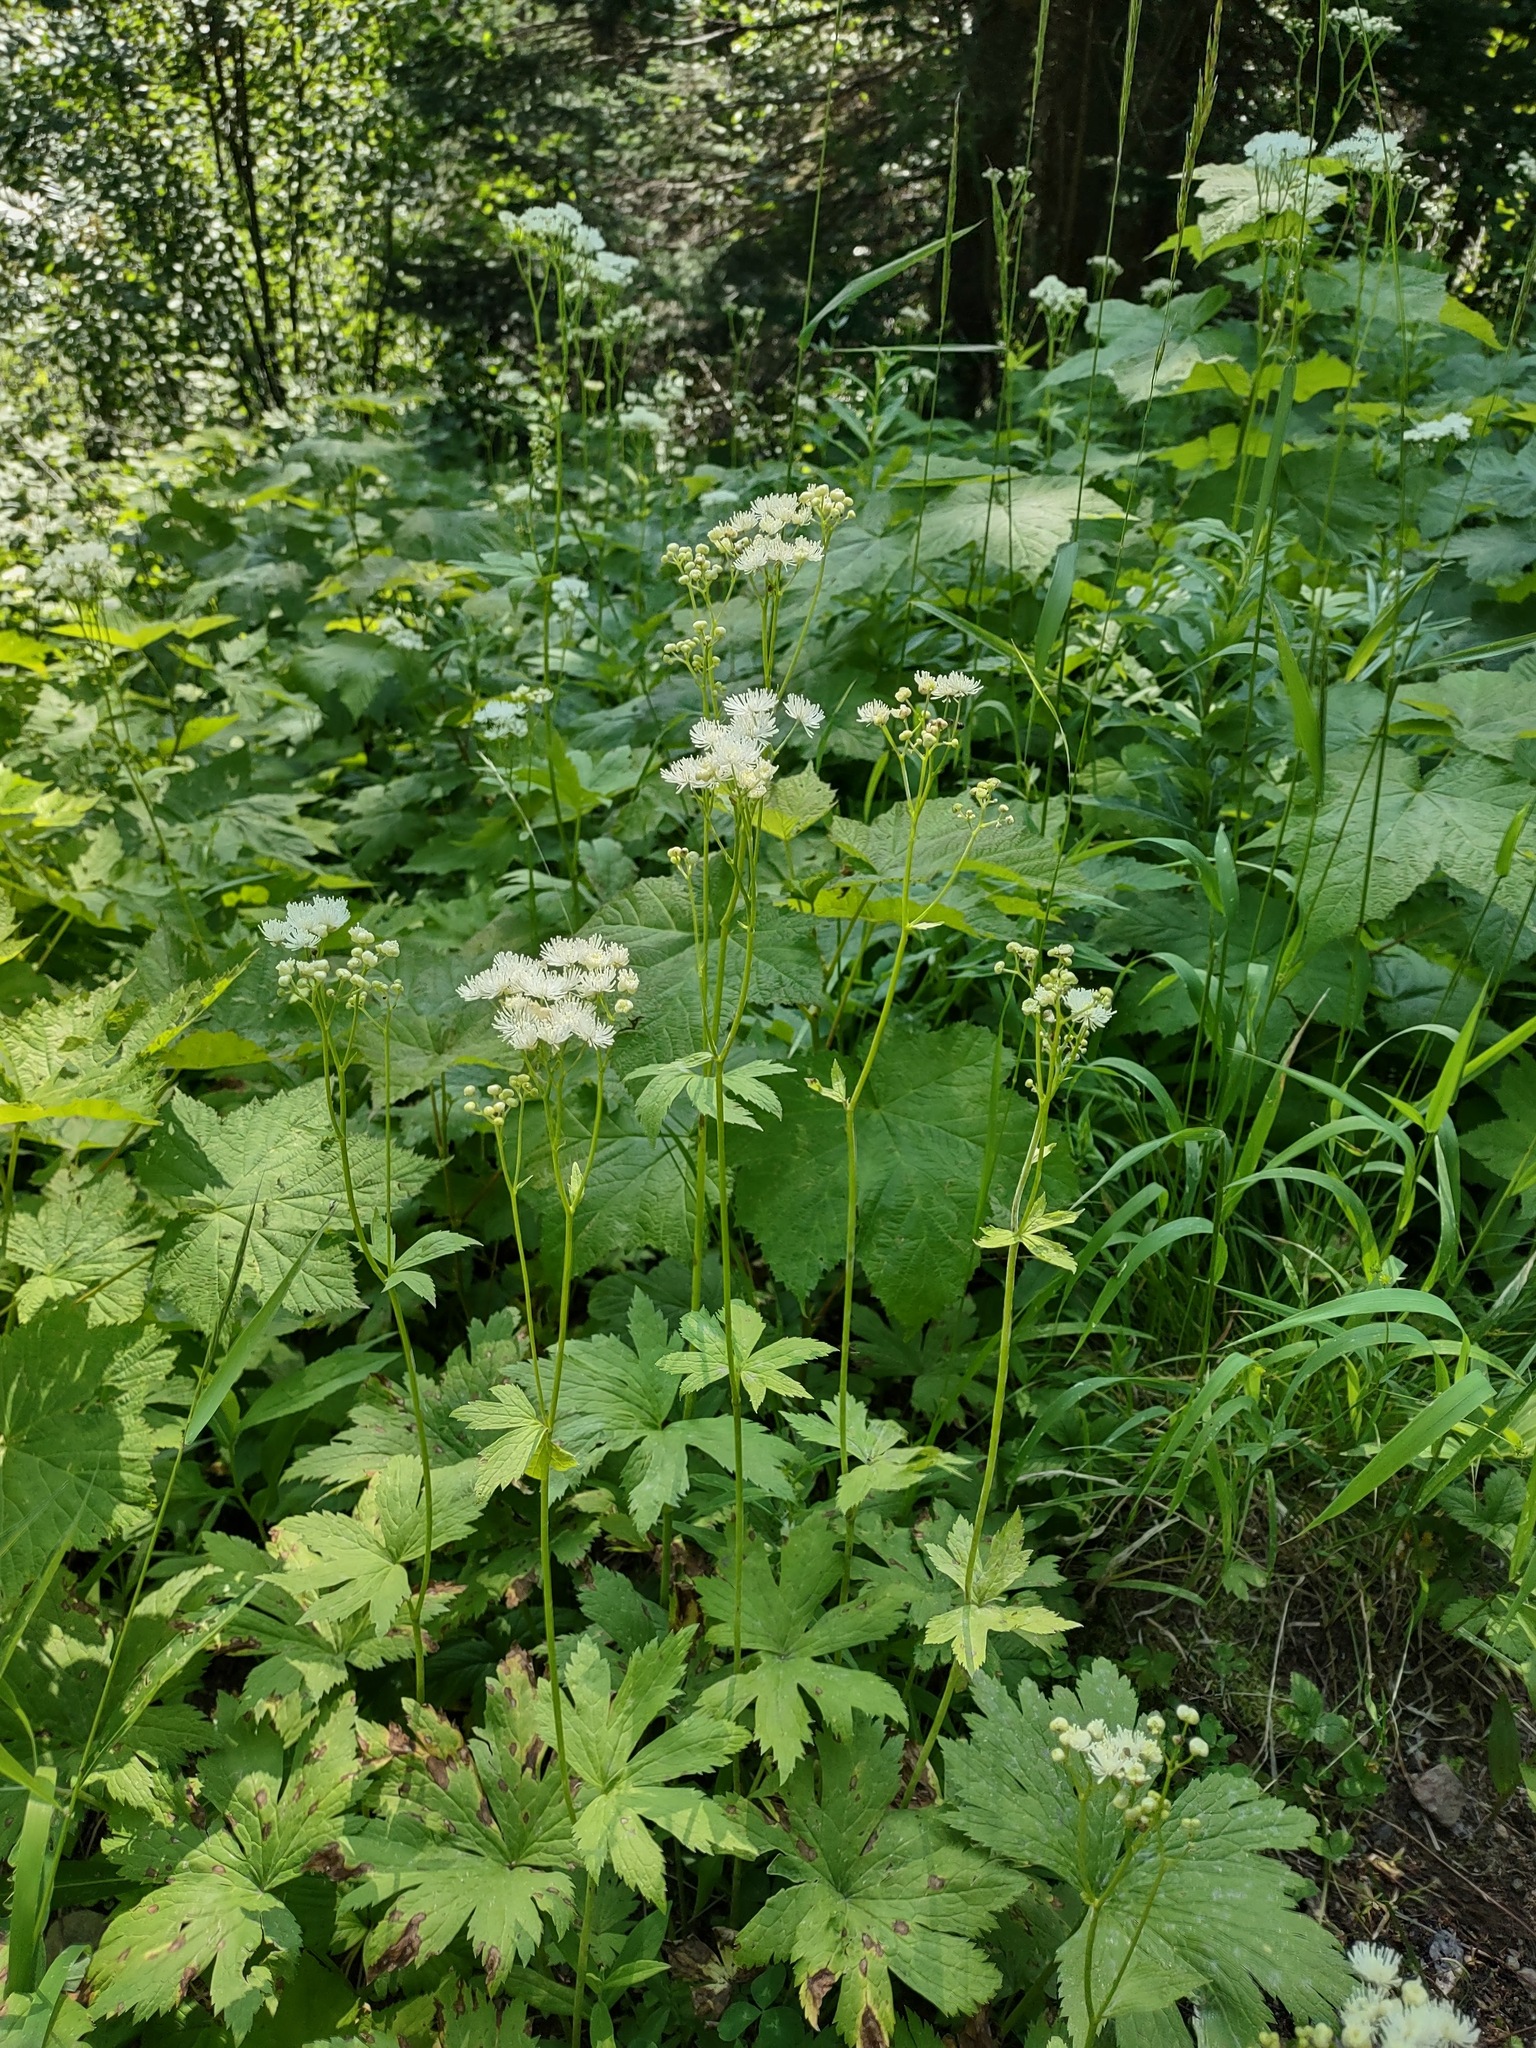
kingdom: Plantae
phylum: Tracheophyta
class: Magnoliopsida
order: Ranunculales
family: Ranunculaceae
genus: Trautvetteria
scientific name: Trautvetteria carolinensis
